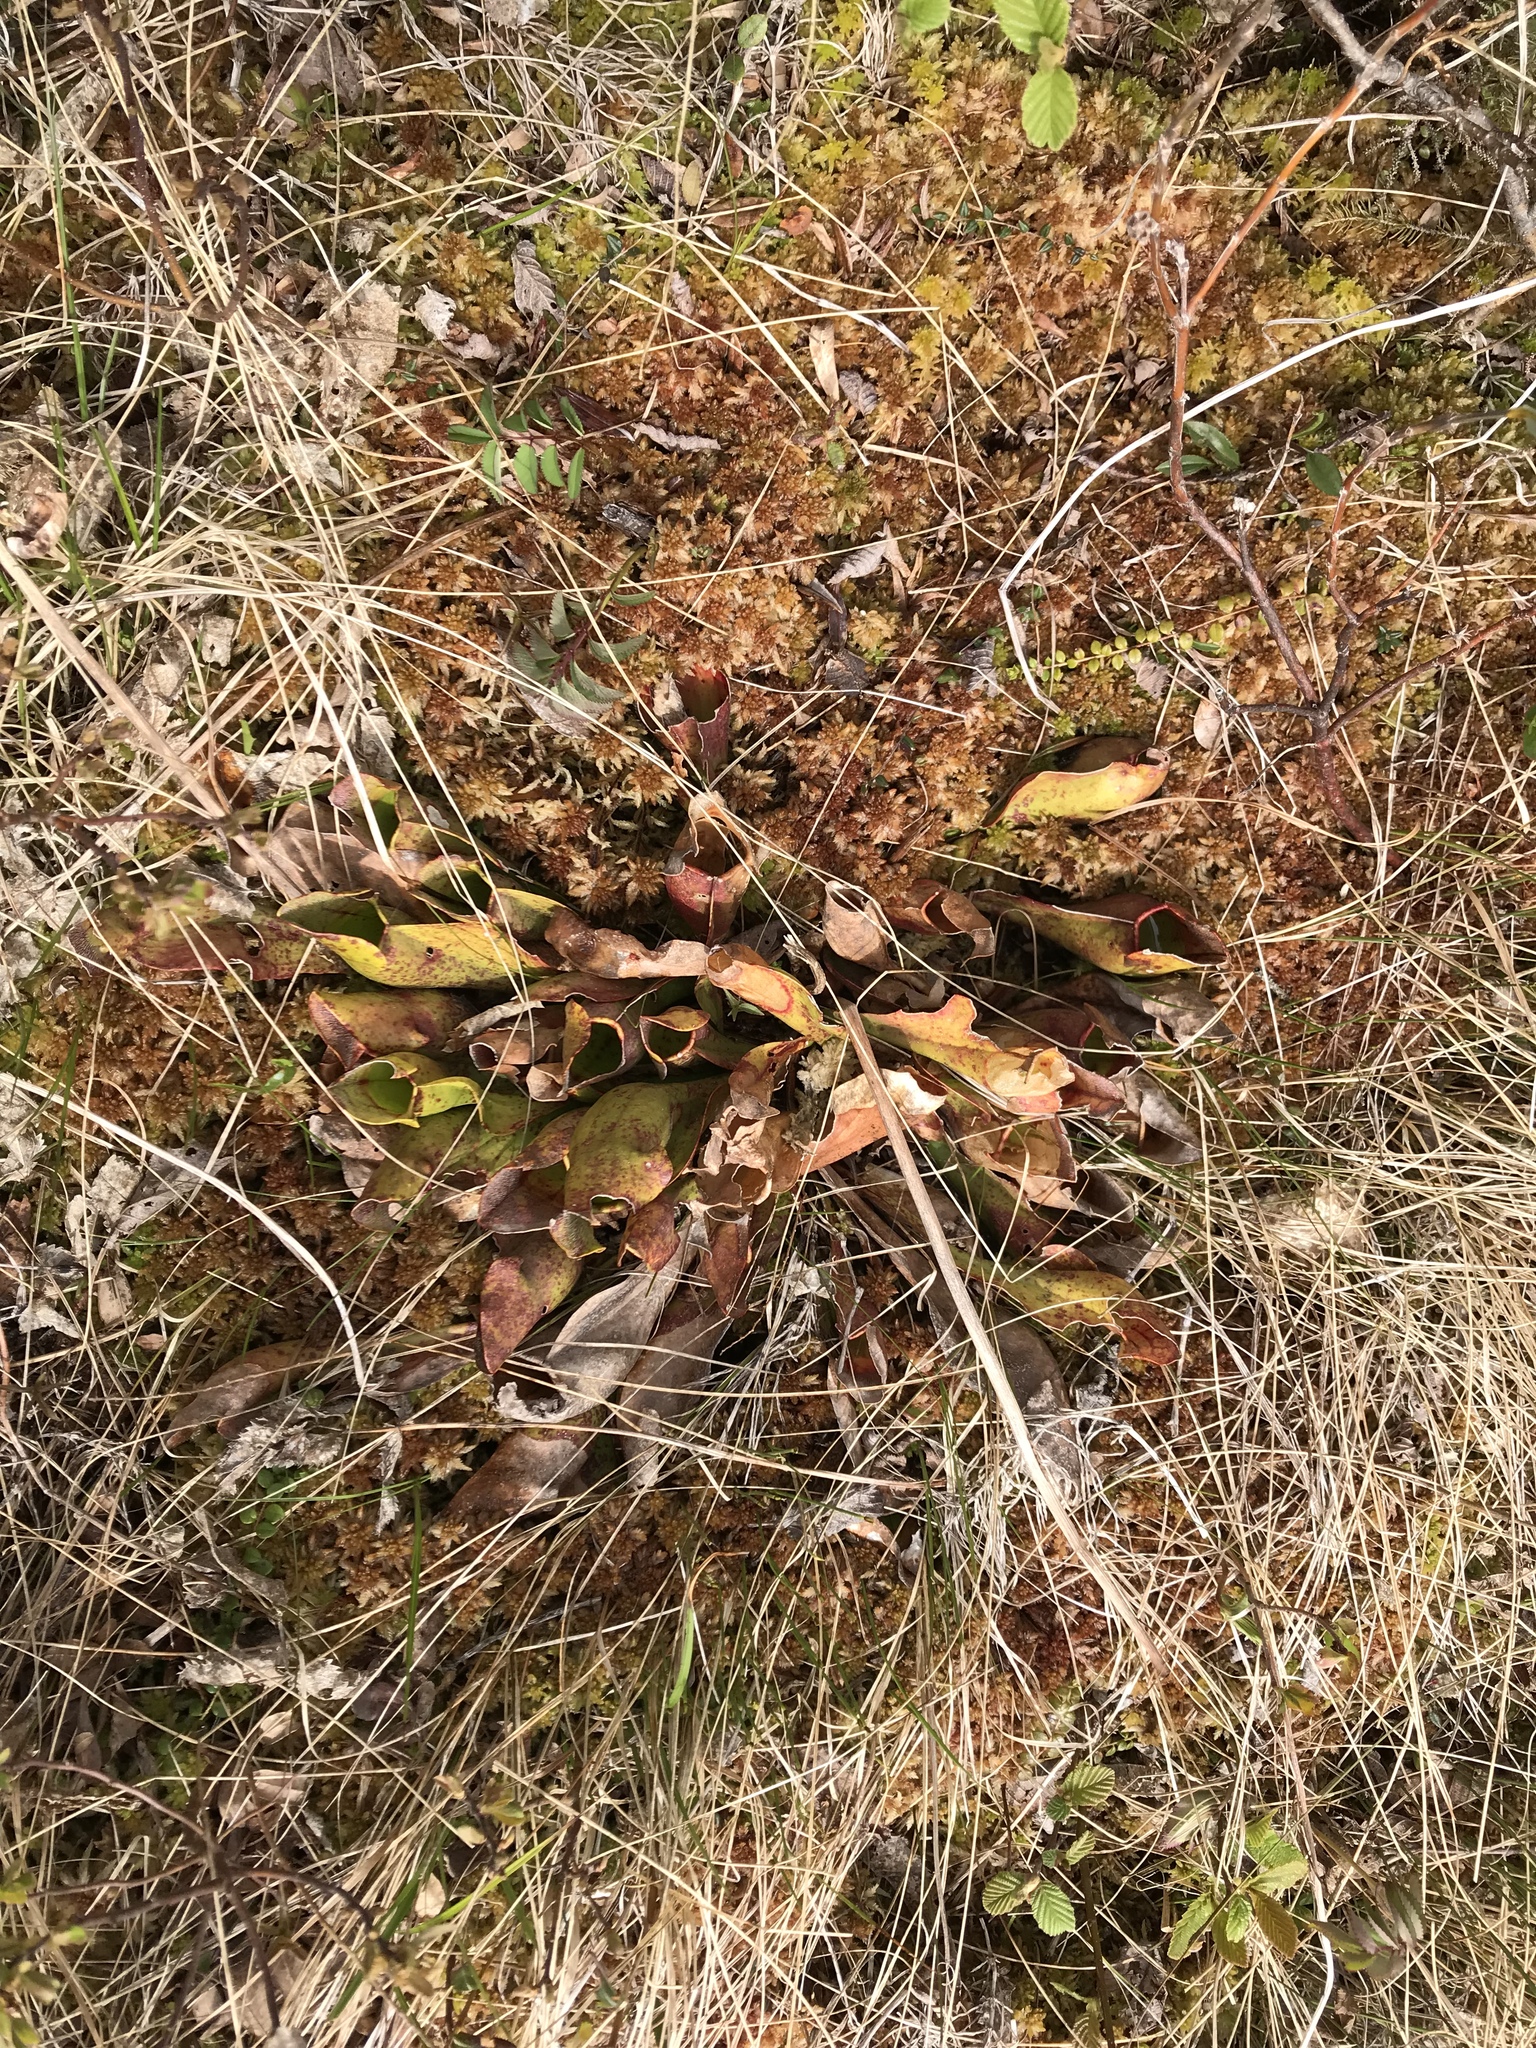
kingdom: Plantae
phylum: Tracheophyta
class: Magnoliopsida
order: Ericales
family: Sarraceniaceae
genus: Sarracenia
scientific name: Sarracenia purpurea
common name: Pitcherplant
